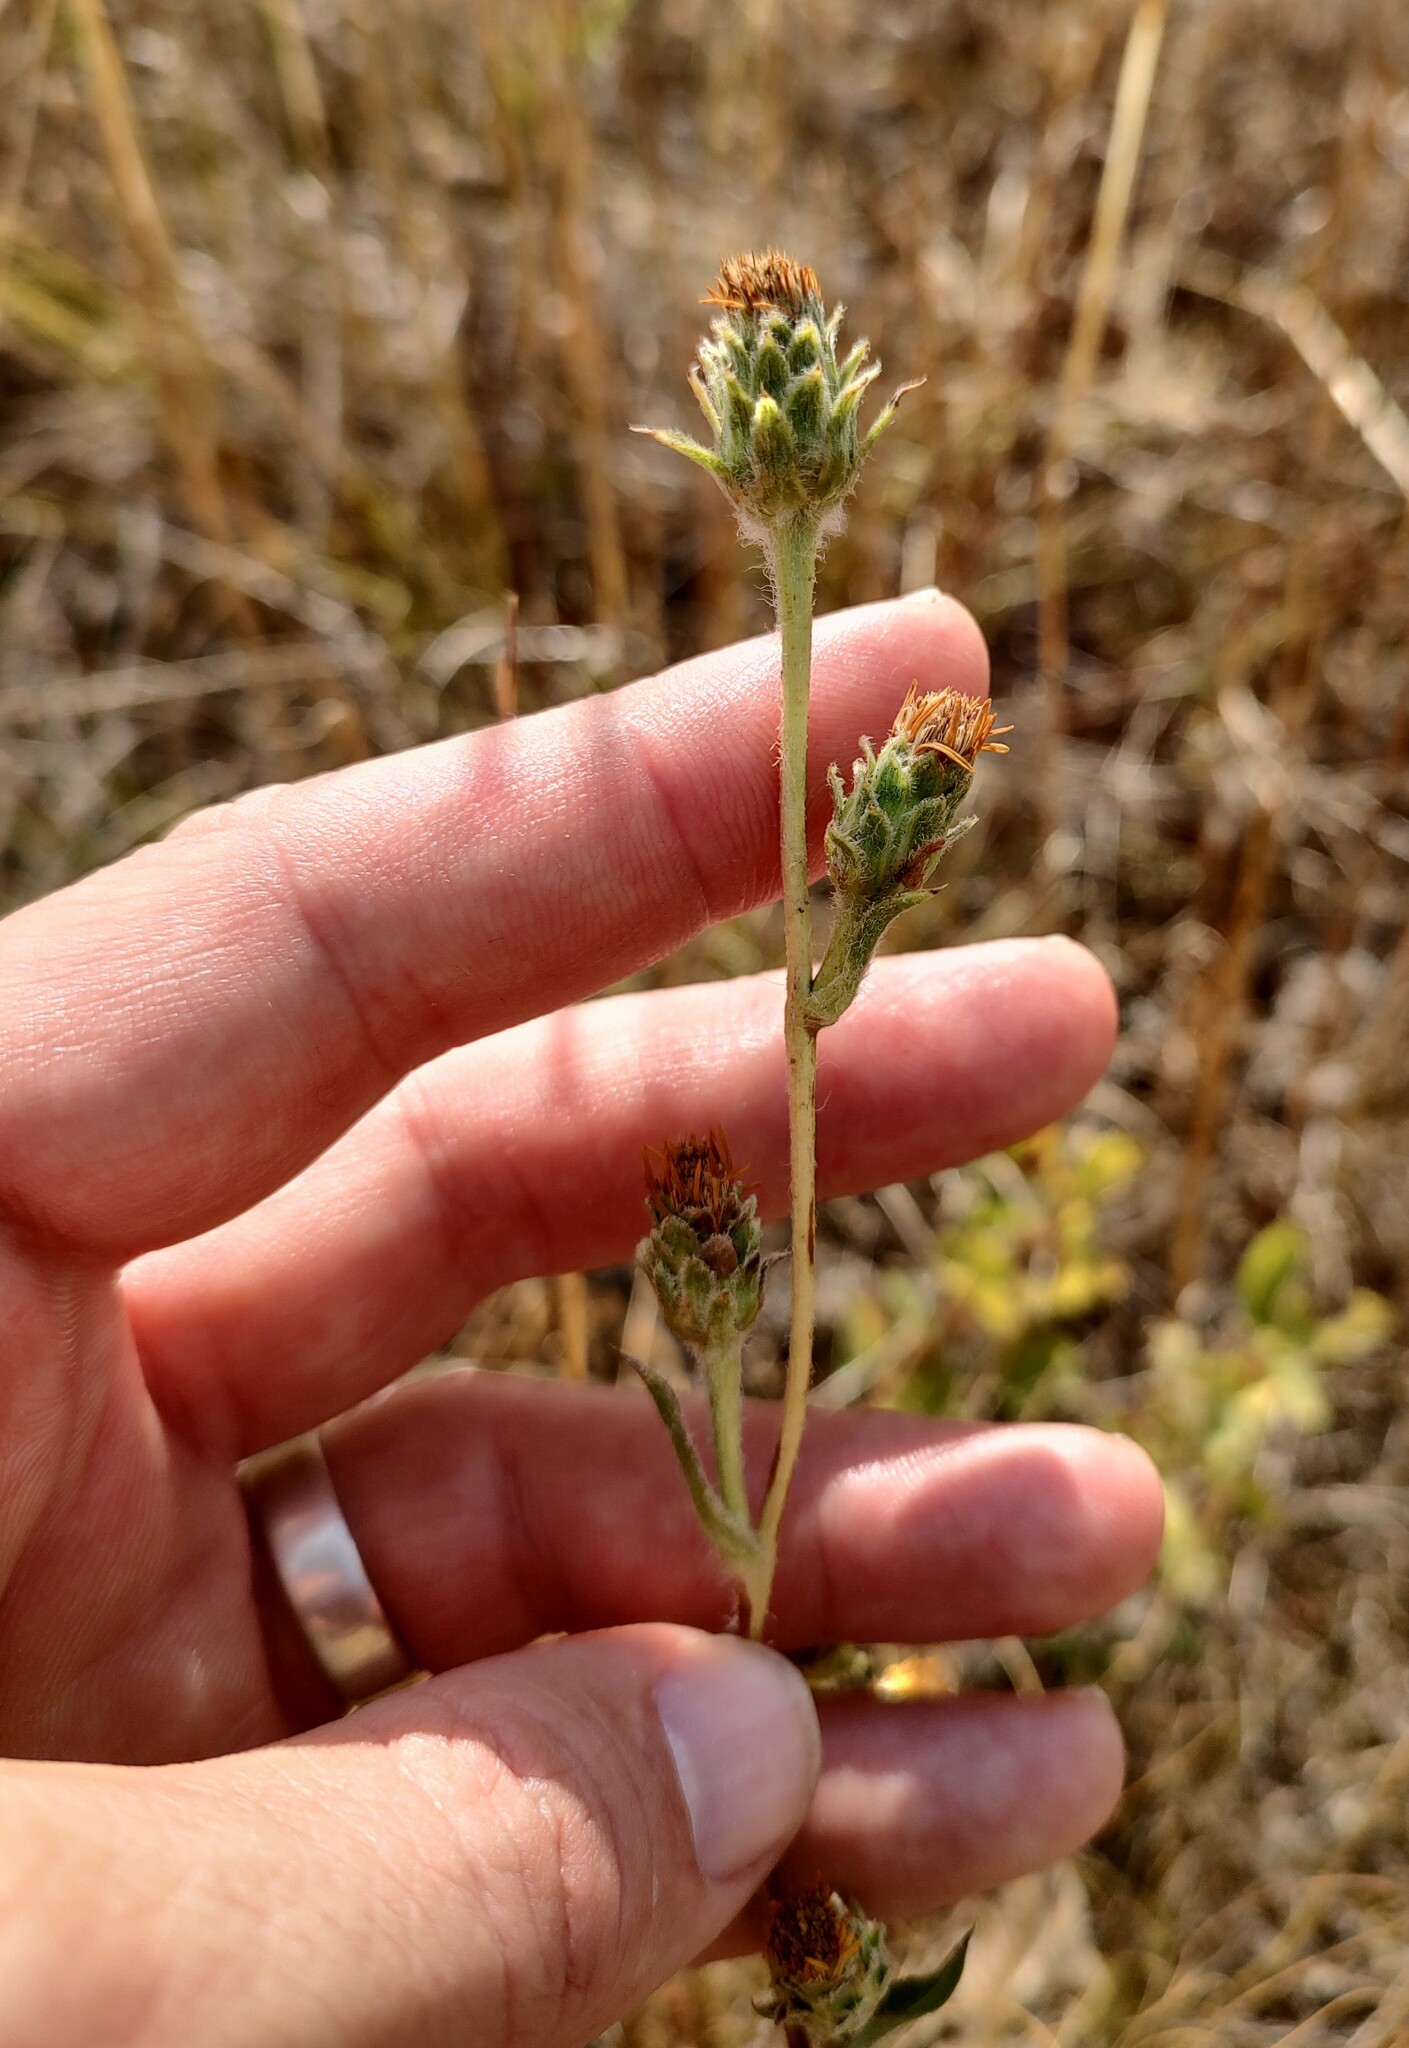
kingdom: Plantae
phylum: Tracheophyta
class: Magnoliopsida
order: Asterales
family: Asteraceae
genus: Pyrrocoma
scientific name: Pyrrocoma liatriformis
